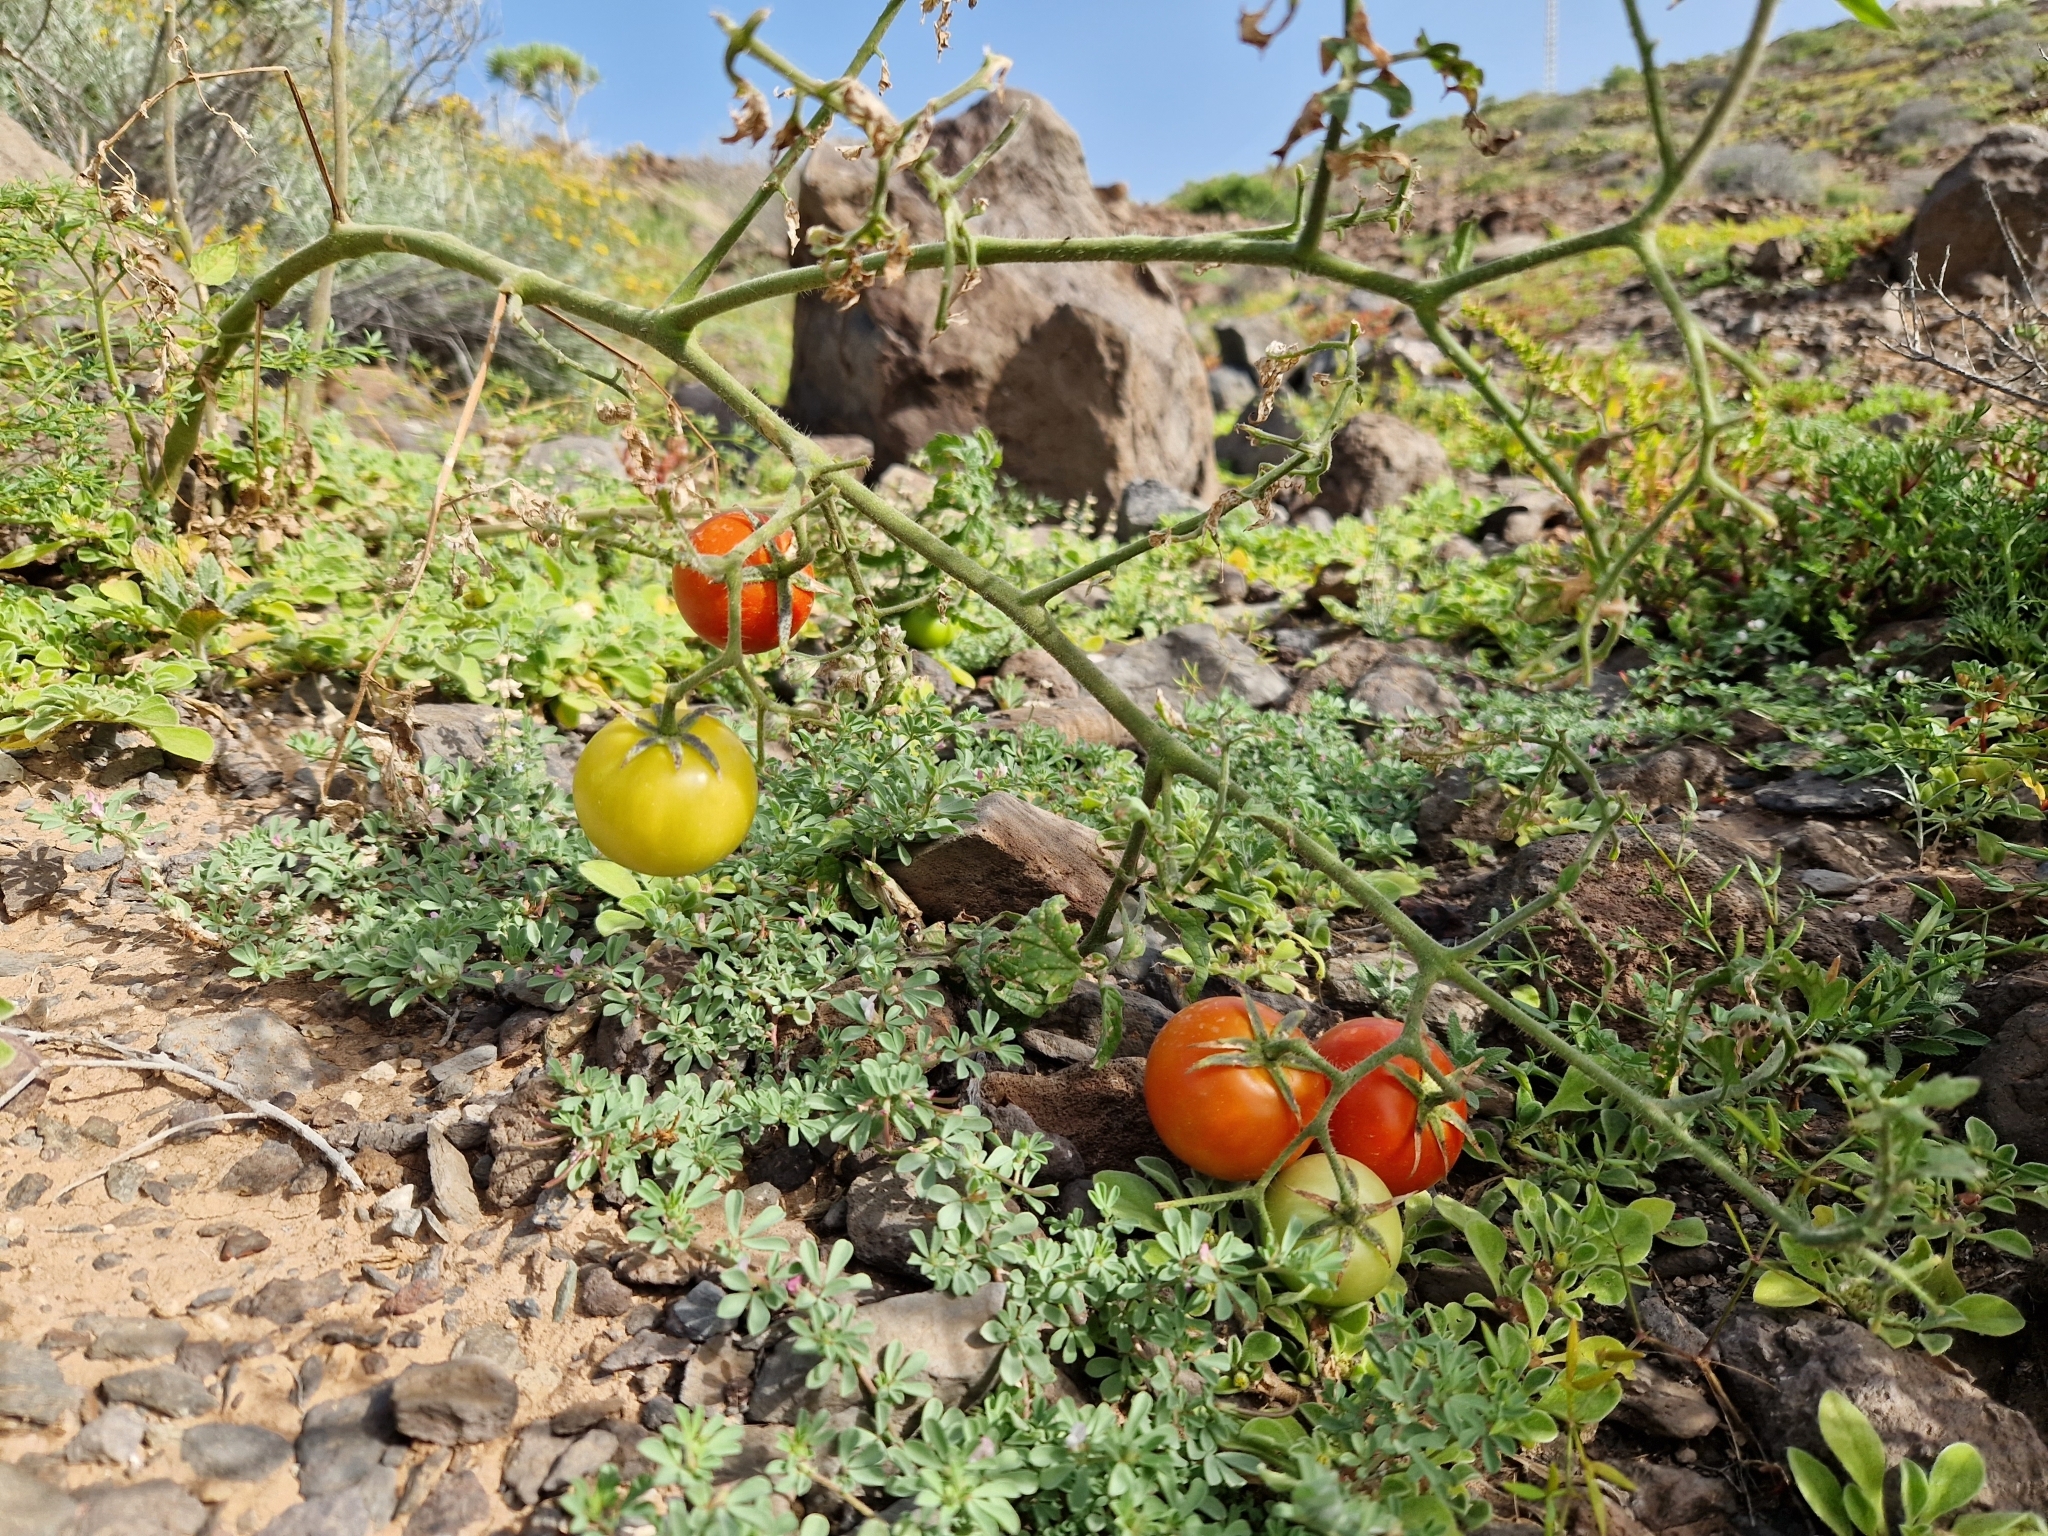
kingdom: Plantae
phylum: Tracheophyta
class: Magnoliopsida
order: Solanales
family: Solanaceae
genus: Solanum
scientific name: Solanum lycopersicum
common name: Garden tomato
